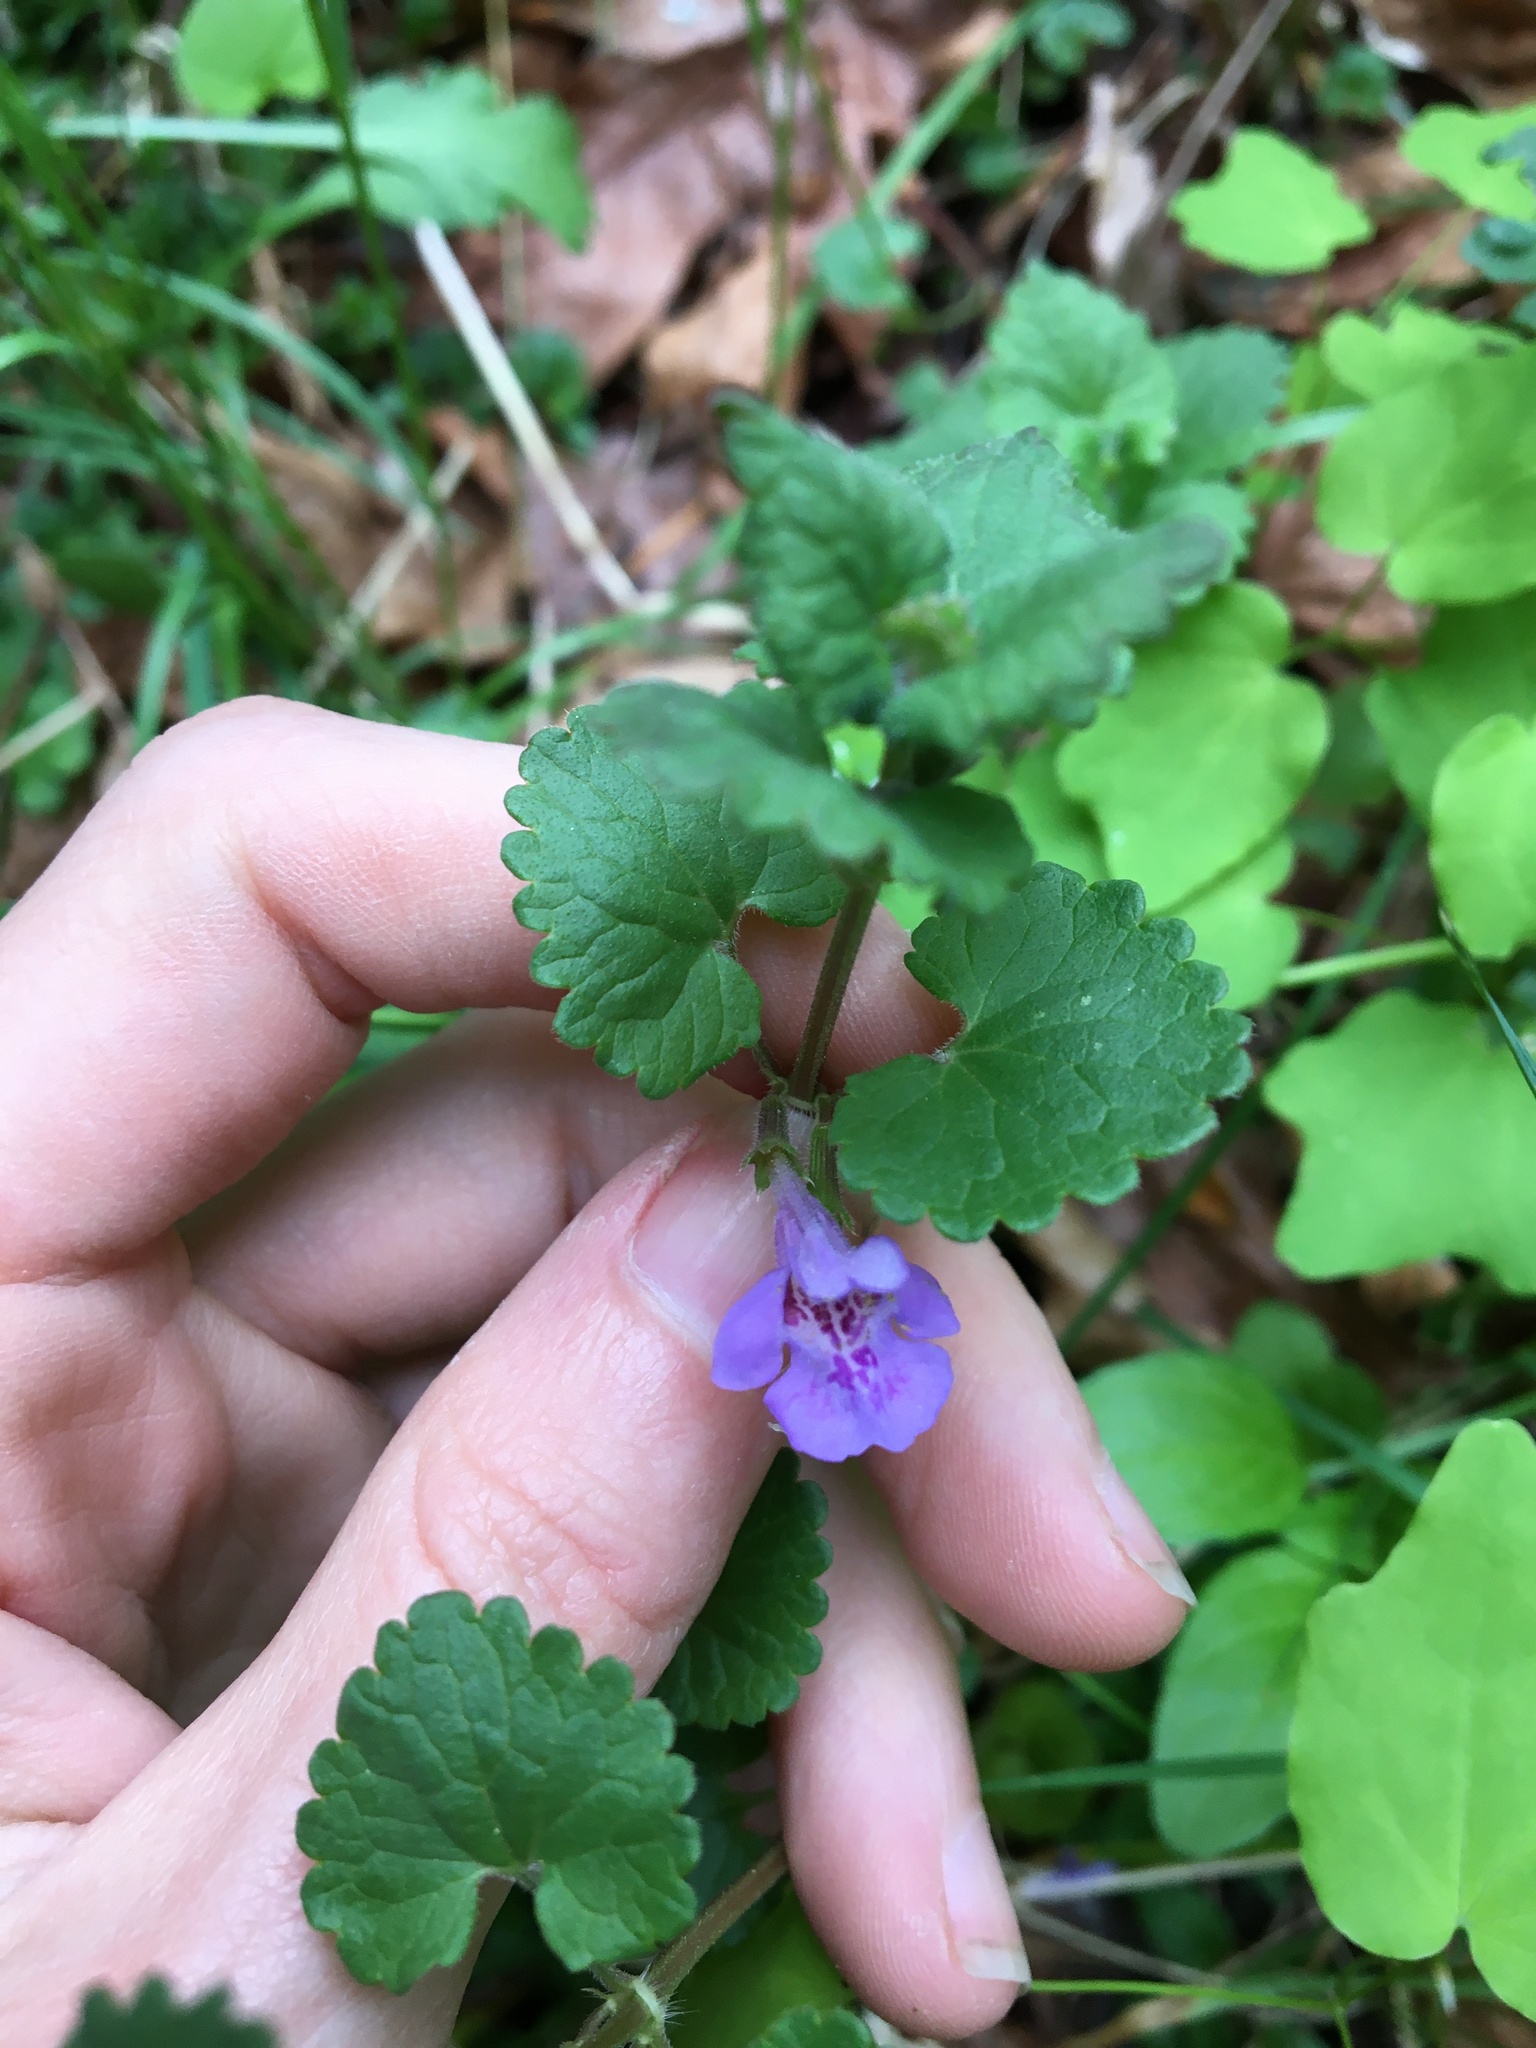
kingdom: Plantae
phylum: Tracheophyta
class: Magnoliopsida
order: Lamiales
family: Lamiaceae
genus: Glechoma
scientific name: Glechoma hederacea
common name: Ground ivy
